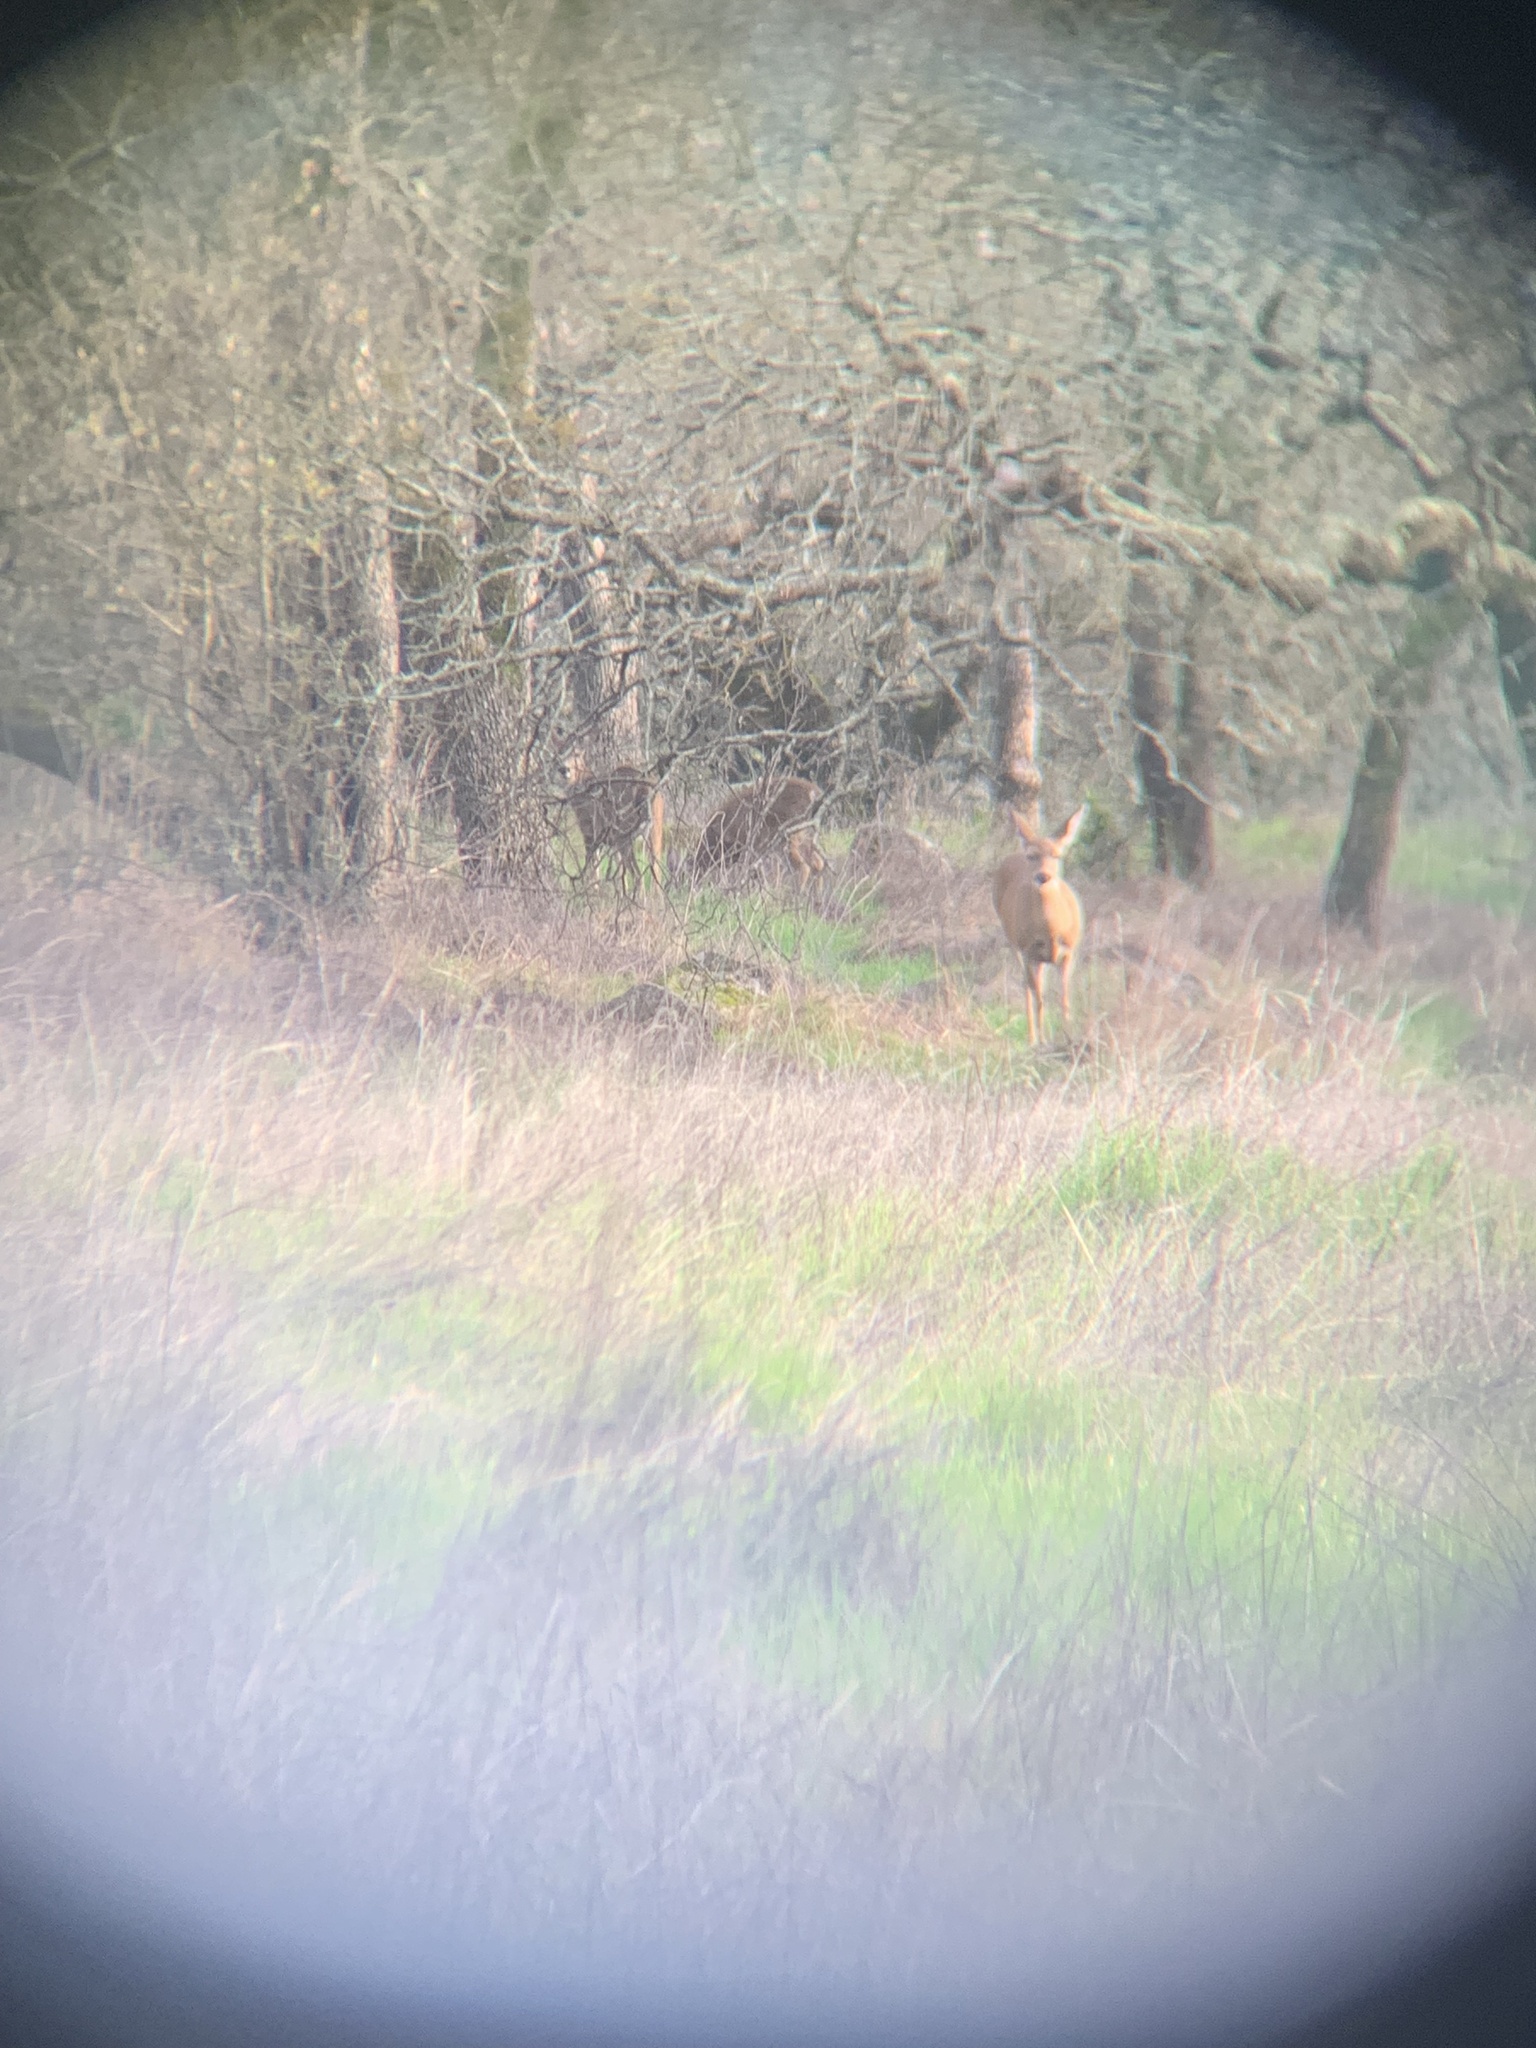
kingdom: Animalia
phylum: Chordata
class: Mammalia
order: Artiodactyla
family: Cervidae
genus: Odocoileus
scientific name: Odocoileus hemionus
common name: Mule deer
